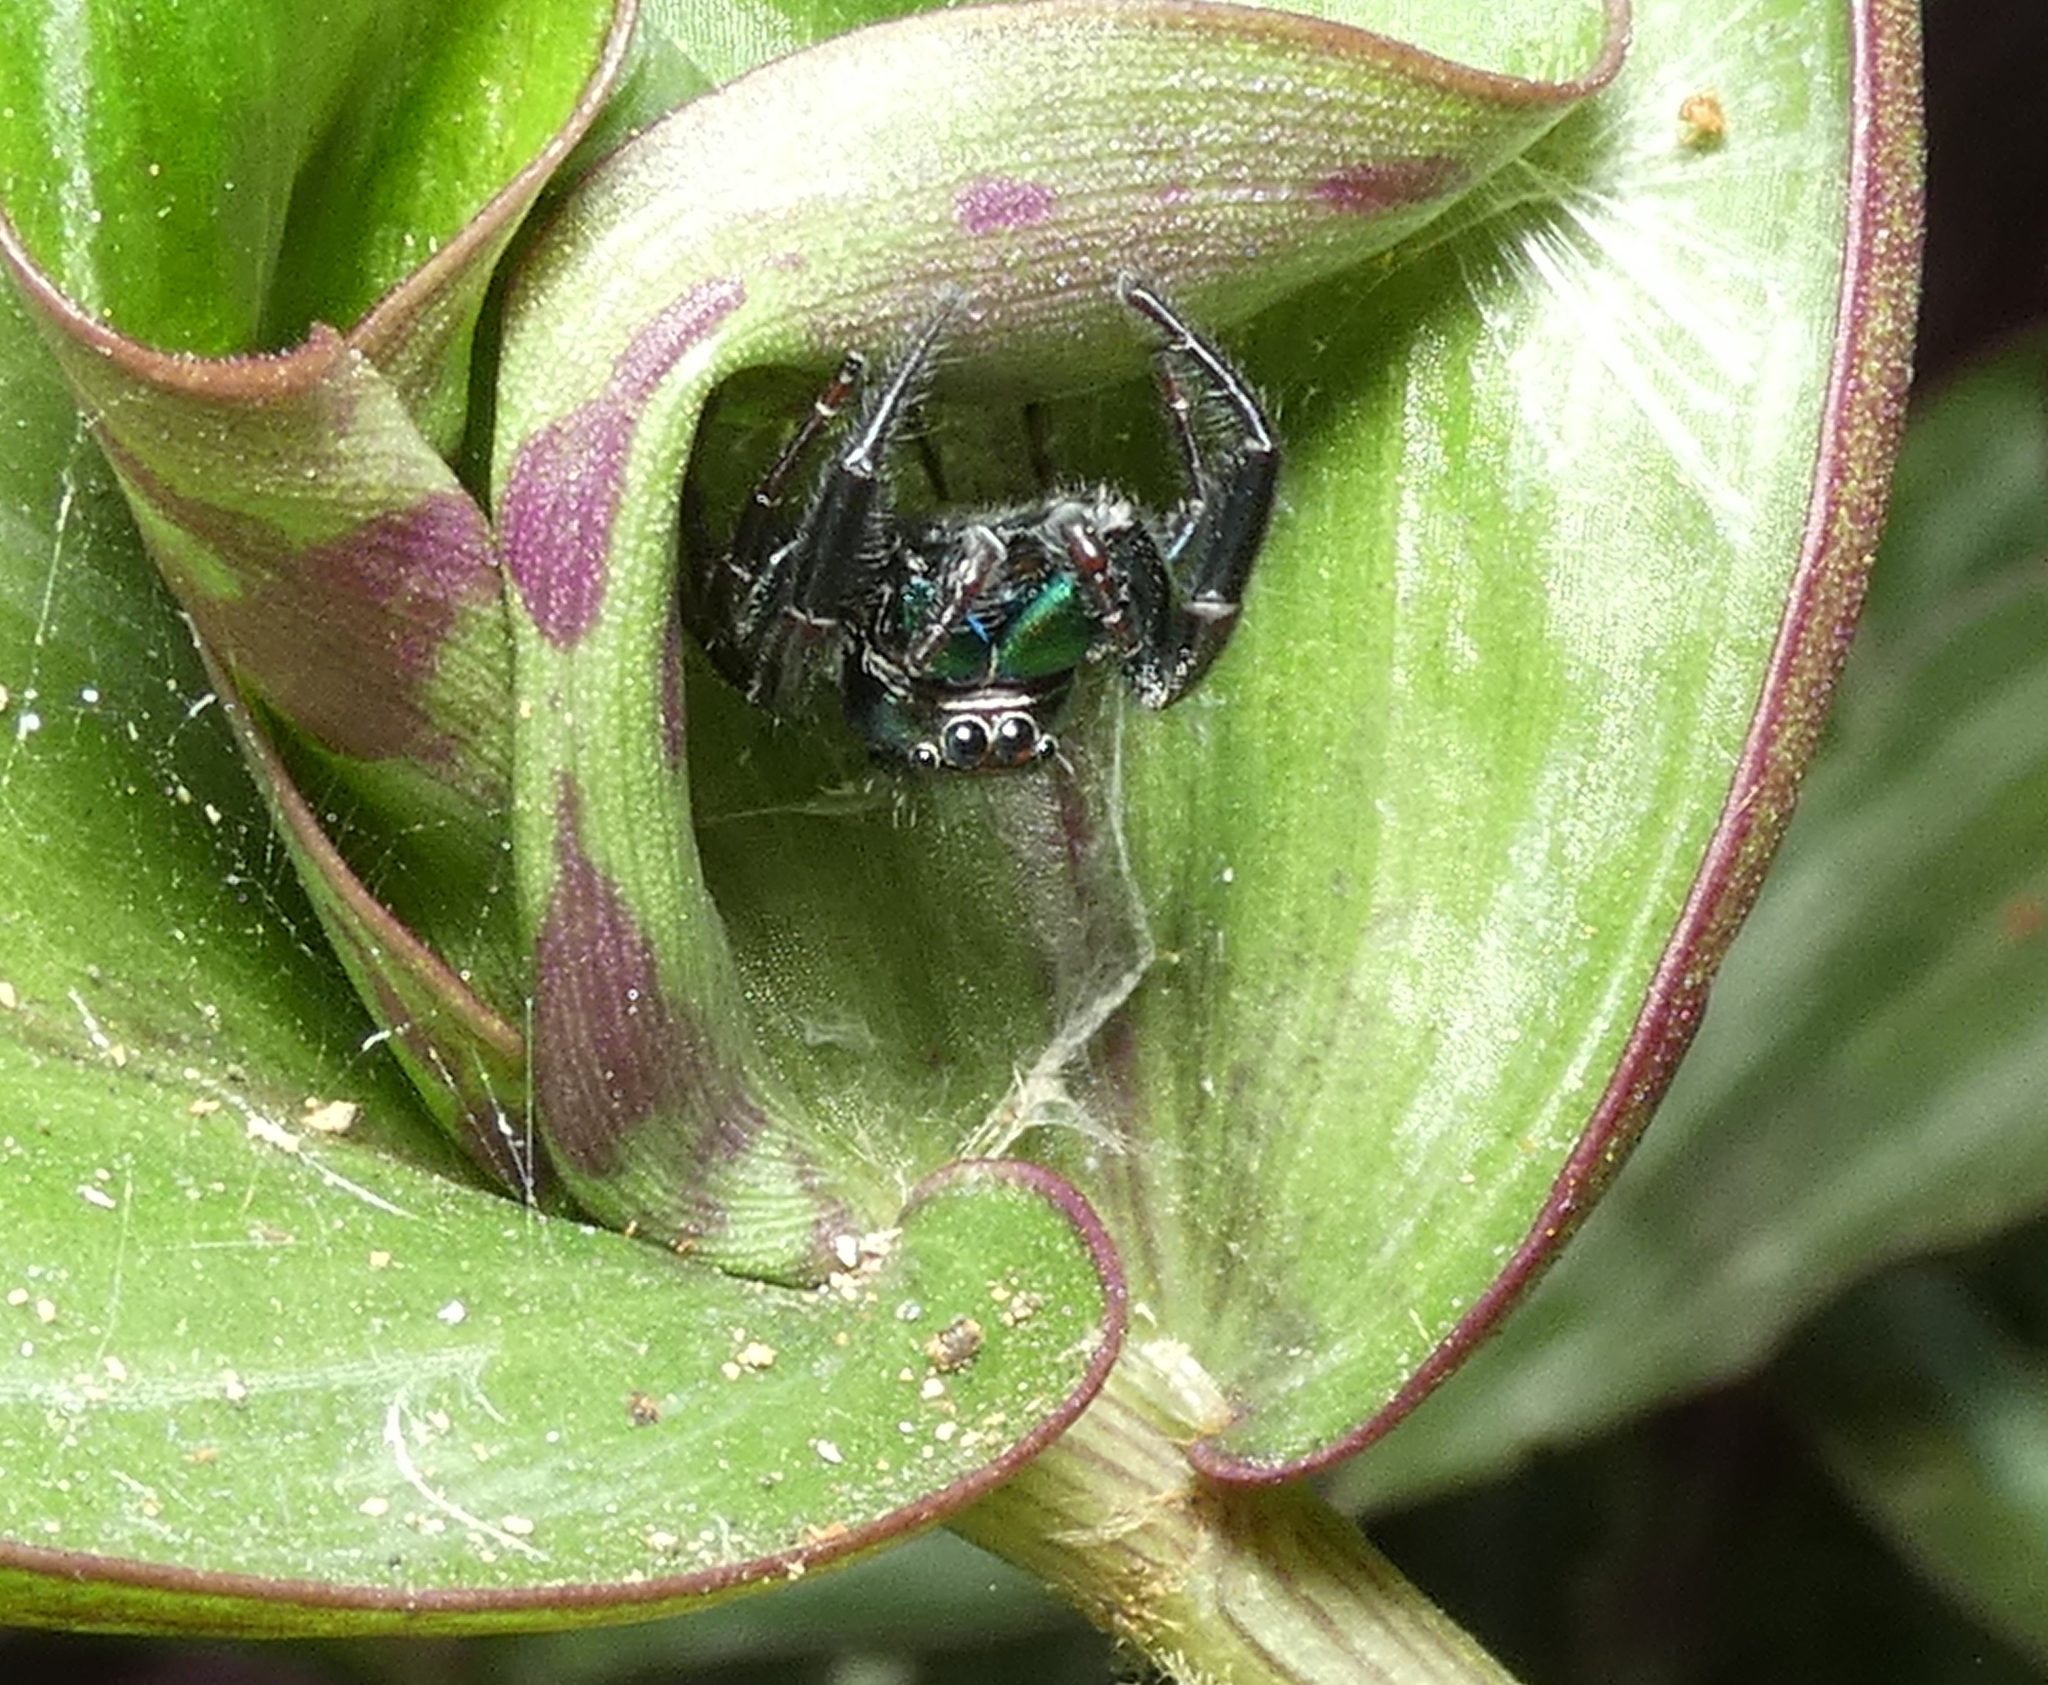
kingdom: Animalia
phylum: Arthropoda
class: Arachnida
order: Araneae
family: Salticidae
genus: Parnaenus
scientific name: Parnaenus cyanidens
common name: Jumping spiders
